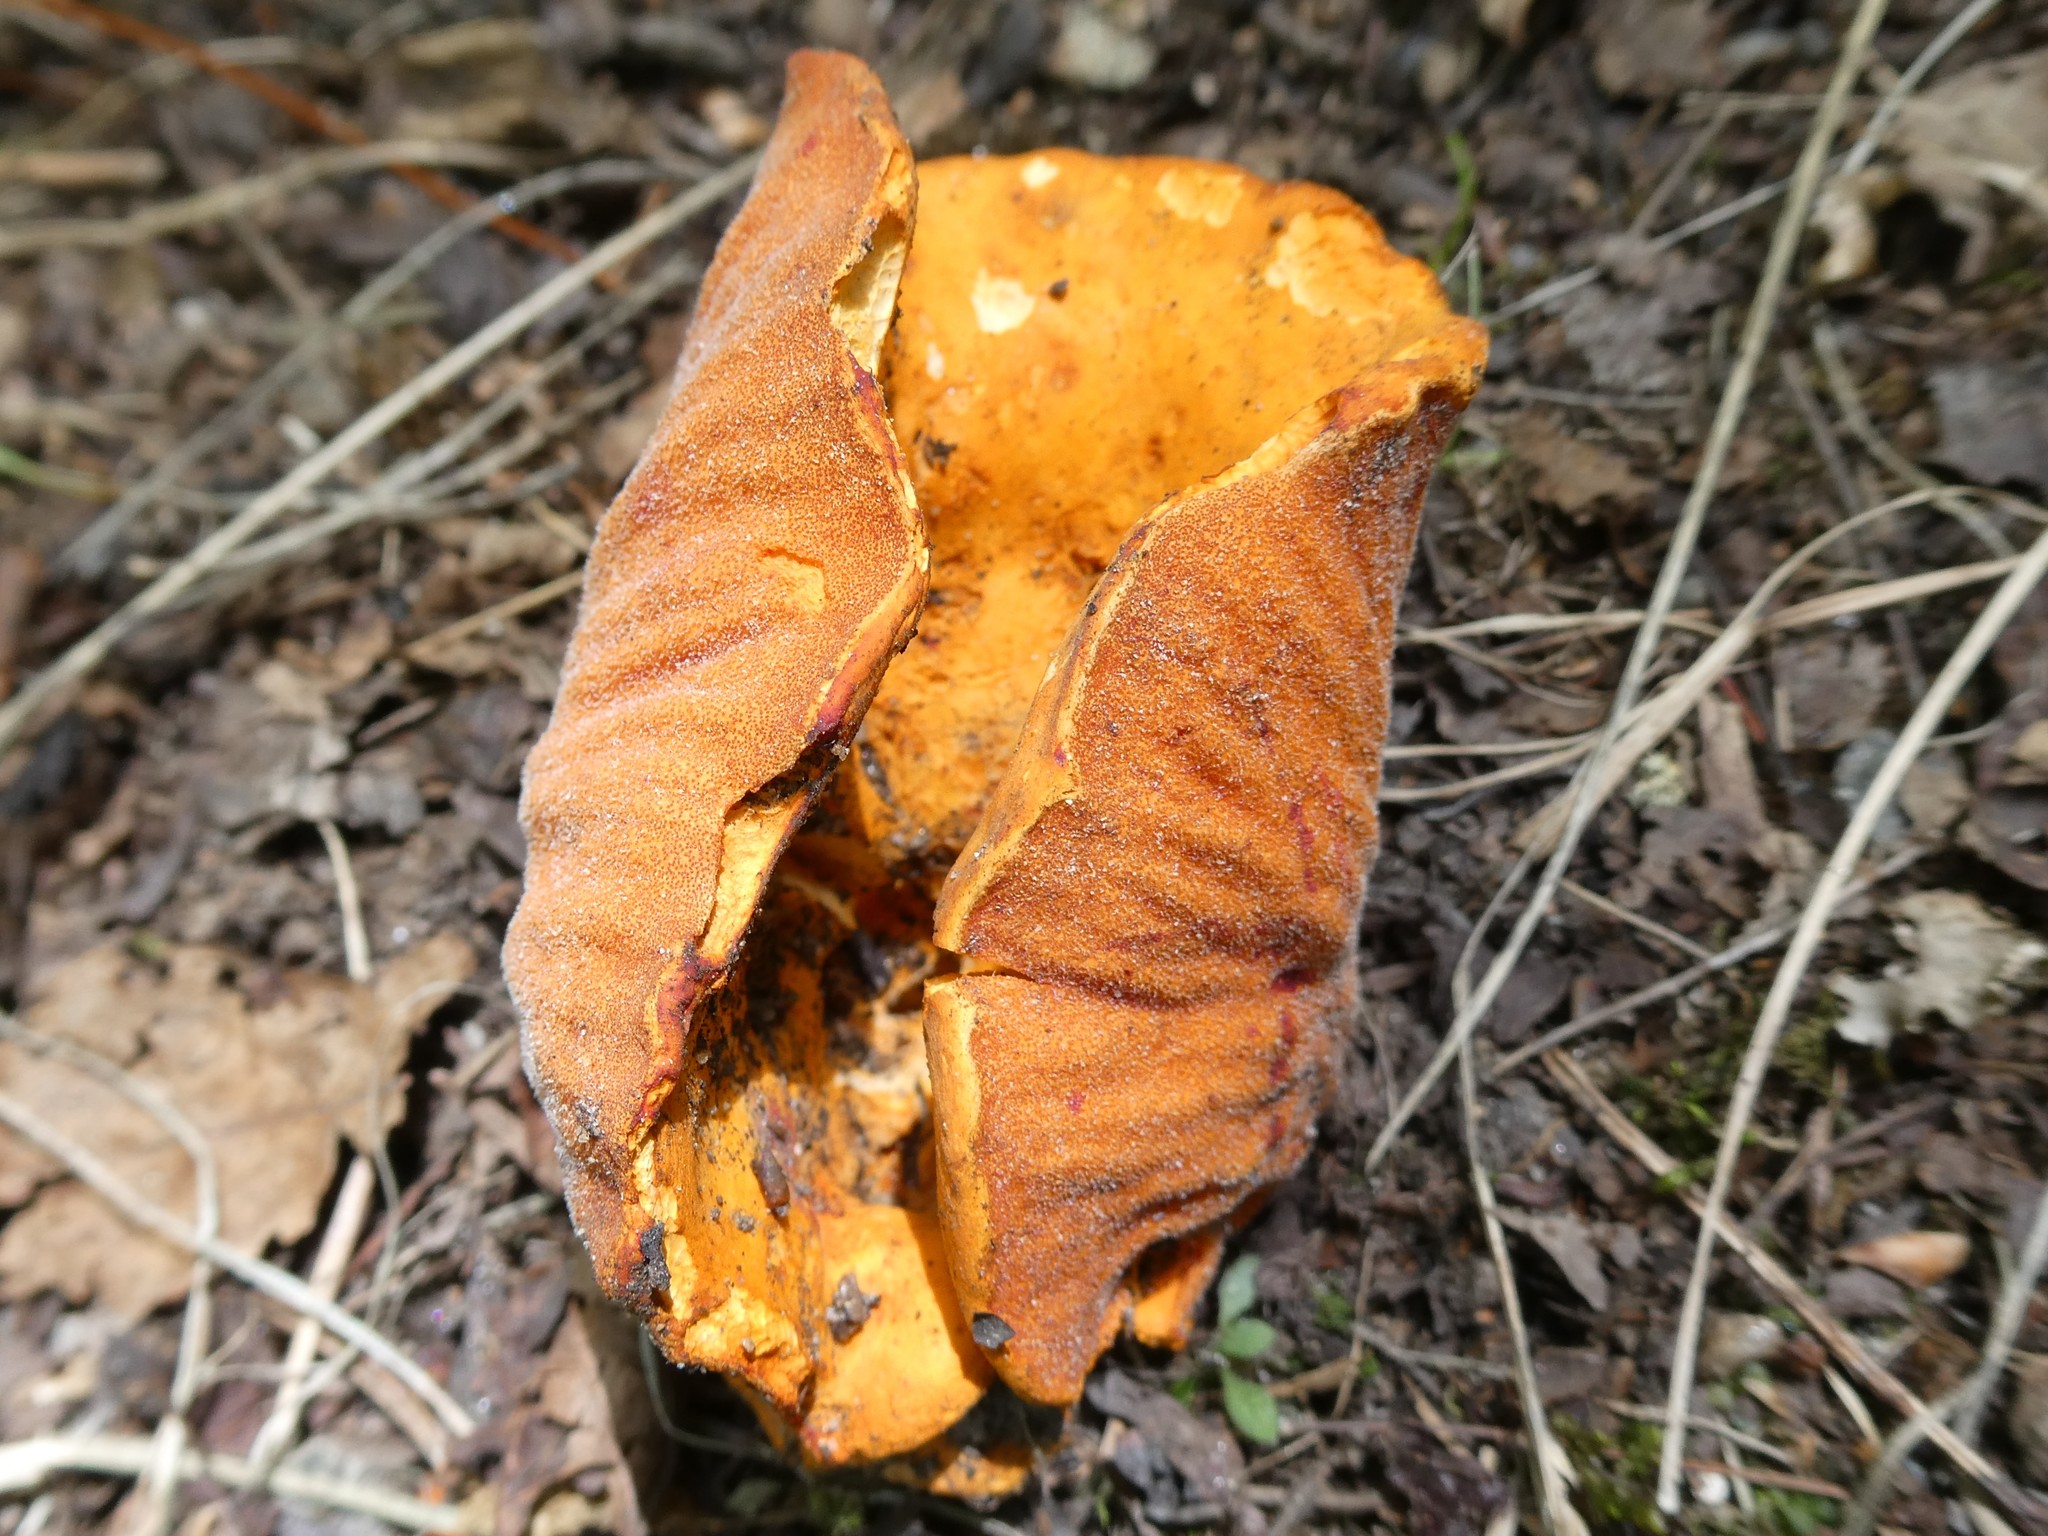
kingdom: Fungi
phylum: Ascomycota
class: Sordariomycetes
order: Hypocreales
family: Hypocreaceae
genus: Hypomyces
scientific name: Hypomyces lactifluorum
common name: Lobster mushroom
